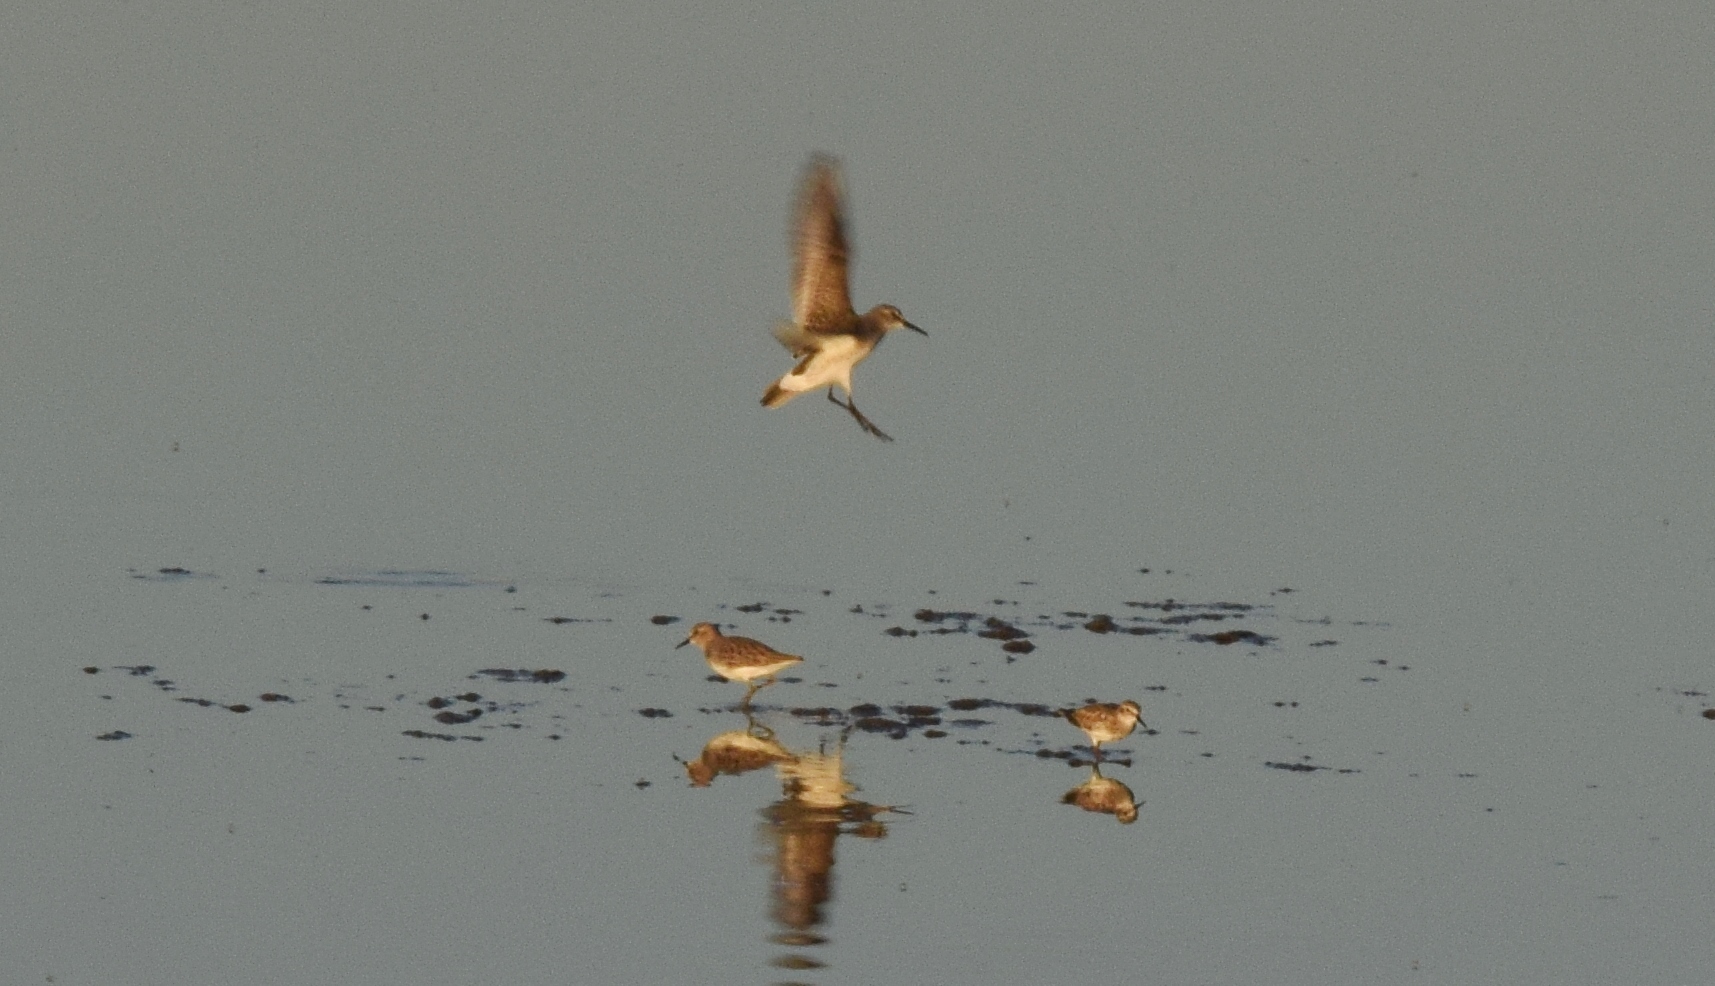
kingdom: Animalia
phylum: Chordata
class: Aves
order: Charadriiformes
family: Scolopacidae
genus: Calidris
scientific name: Calidris fuscicollis
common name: White-rumped sandpiper
